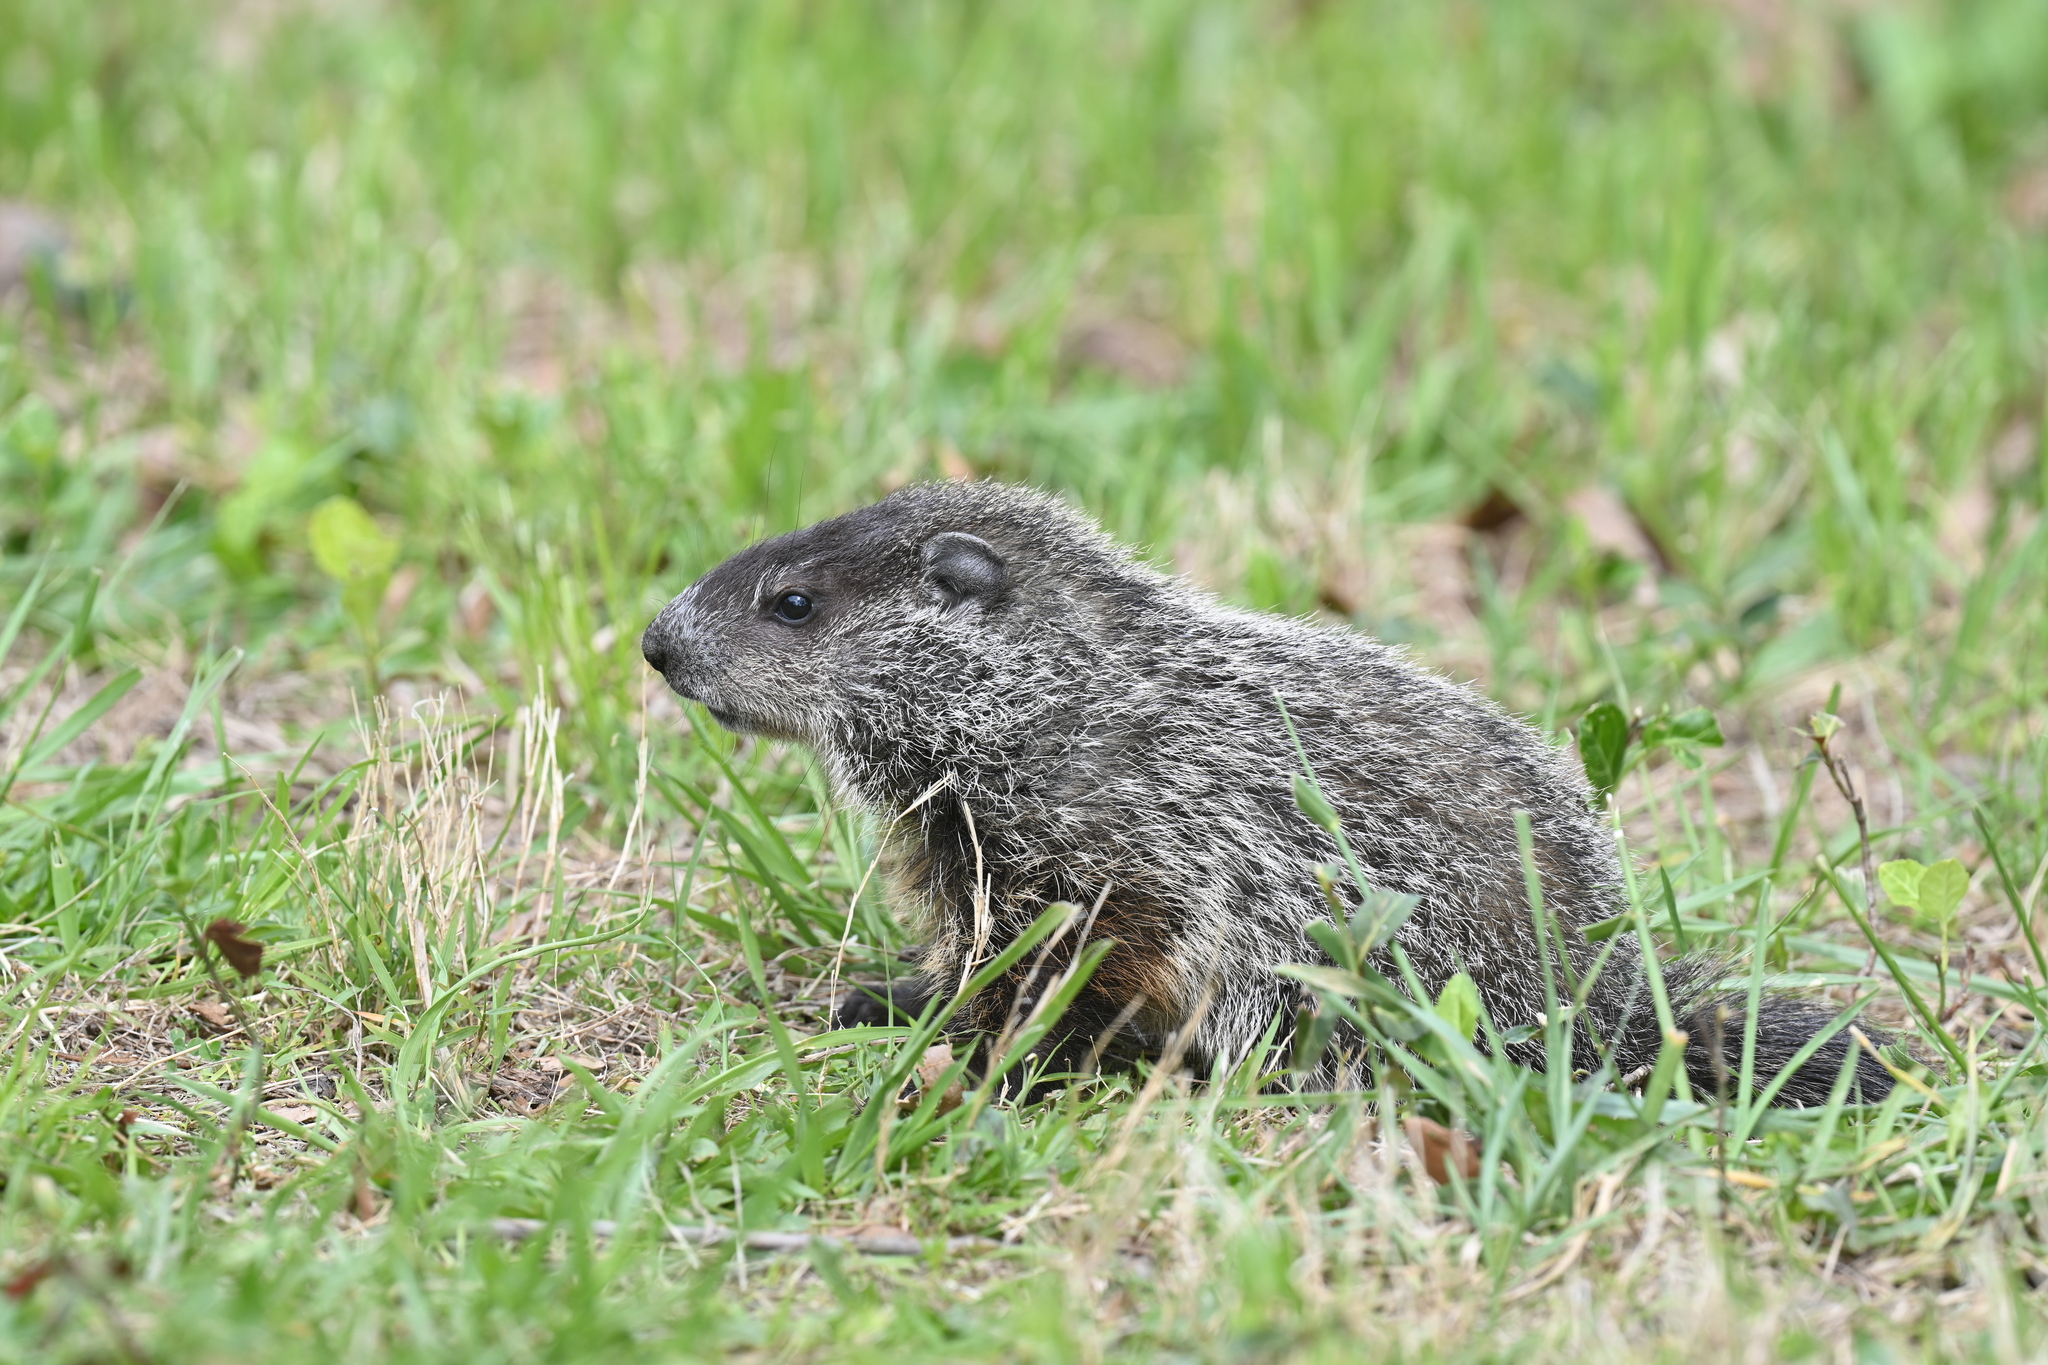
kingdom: Animalia
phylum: Chordata
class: Mammalia
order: Rodentia
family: Sciuridae
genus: Marmota
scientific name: Marmota monax
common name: Groundhog
